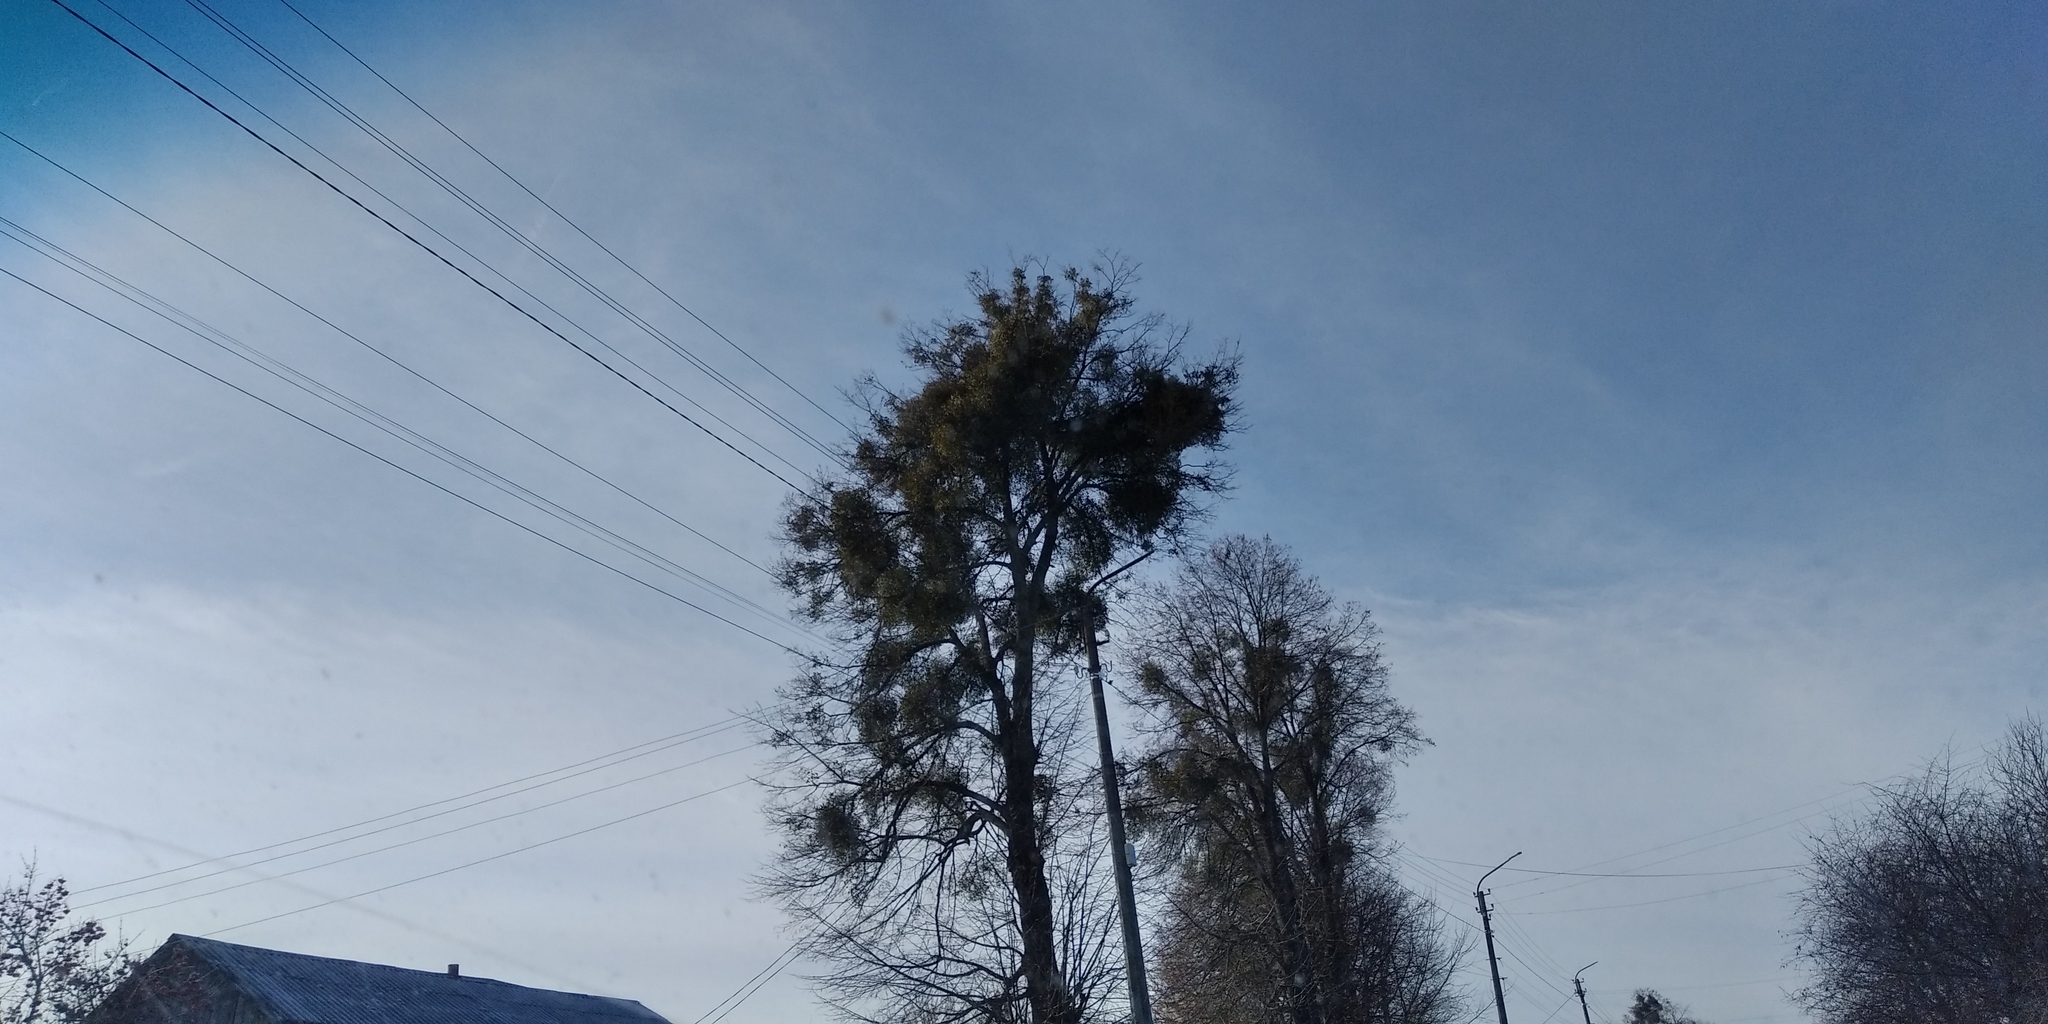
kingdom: Plantae
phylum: Tracheophyta
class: Magnoliopsida
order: Santalales
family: Viscaceae
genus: Viscum
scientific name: Viscum album
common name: Mistletoe
